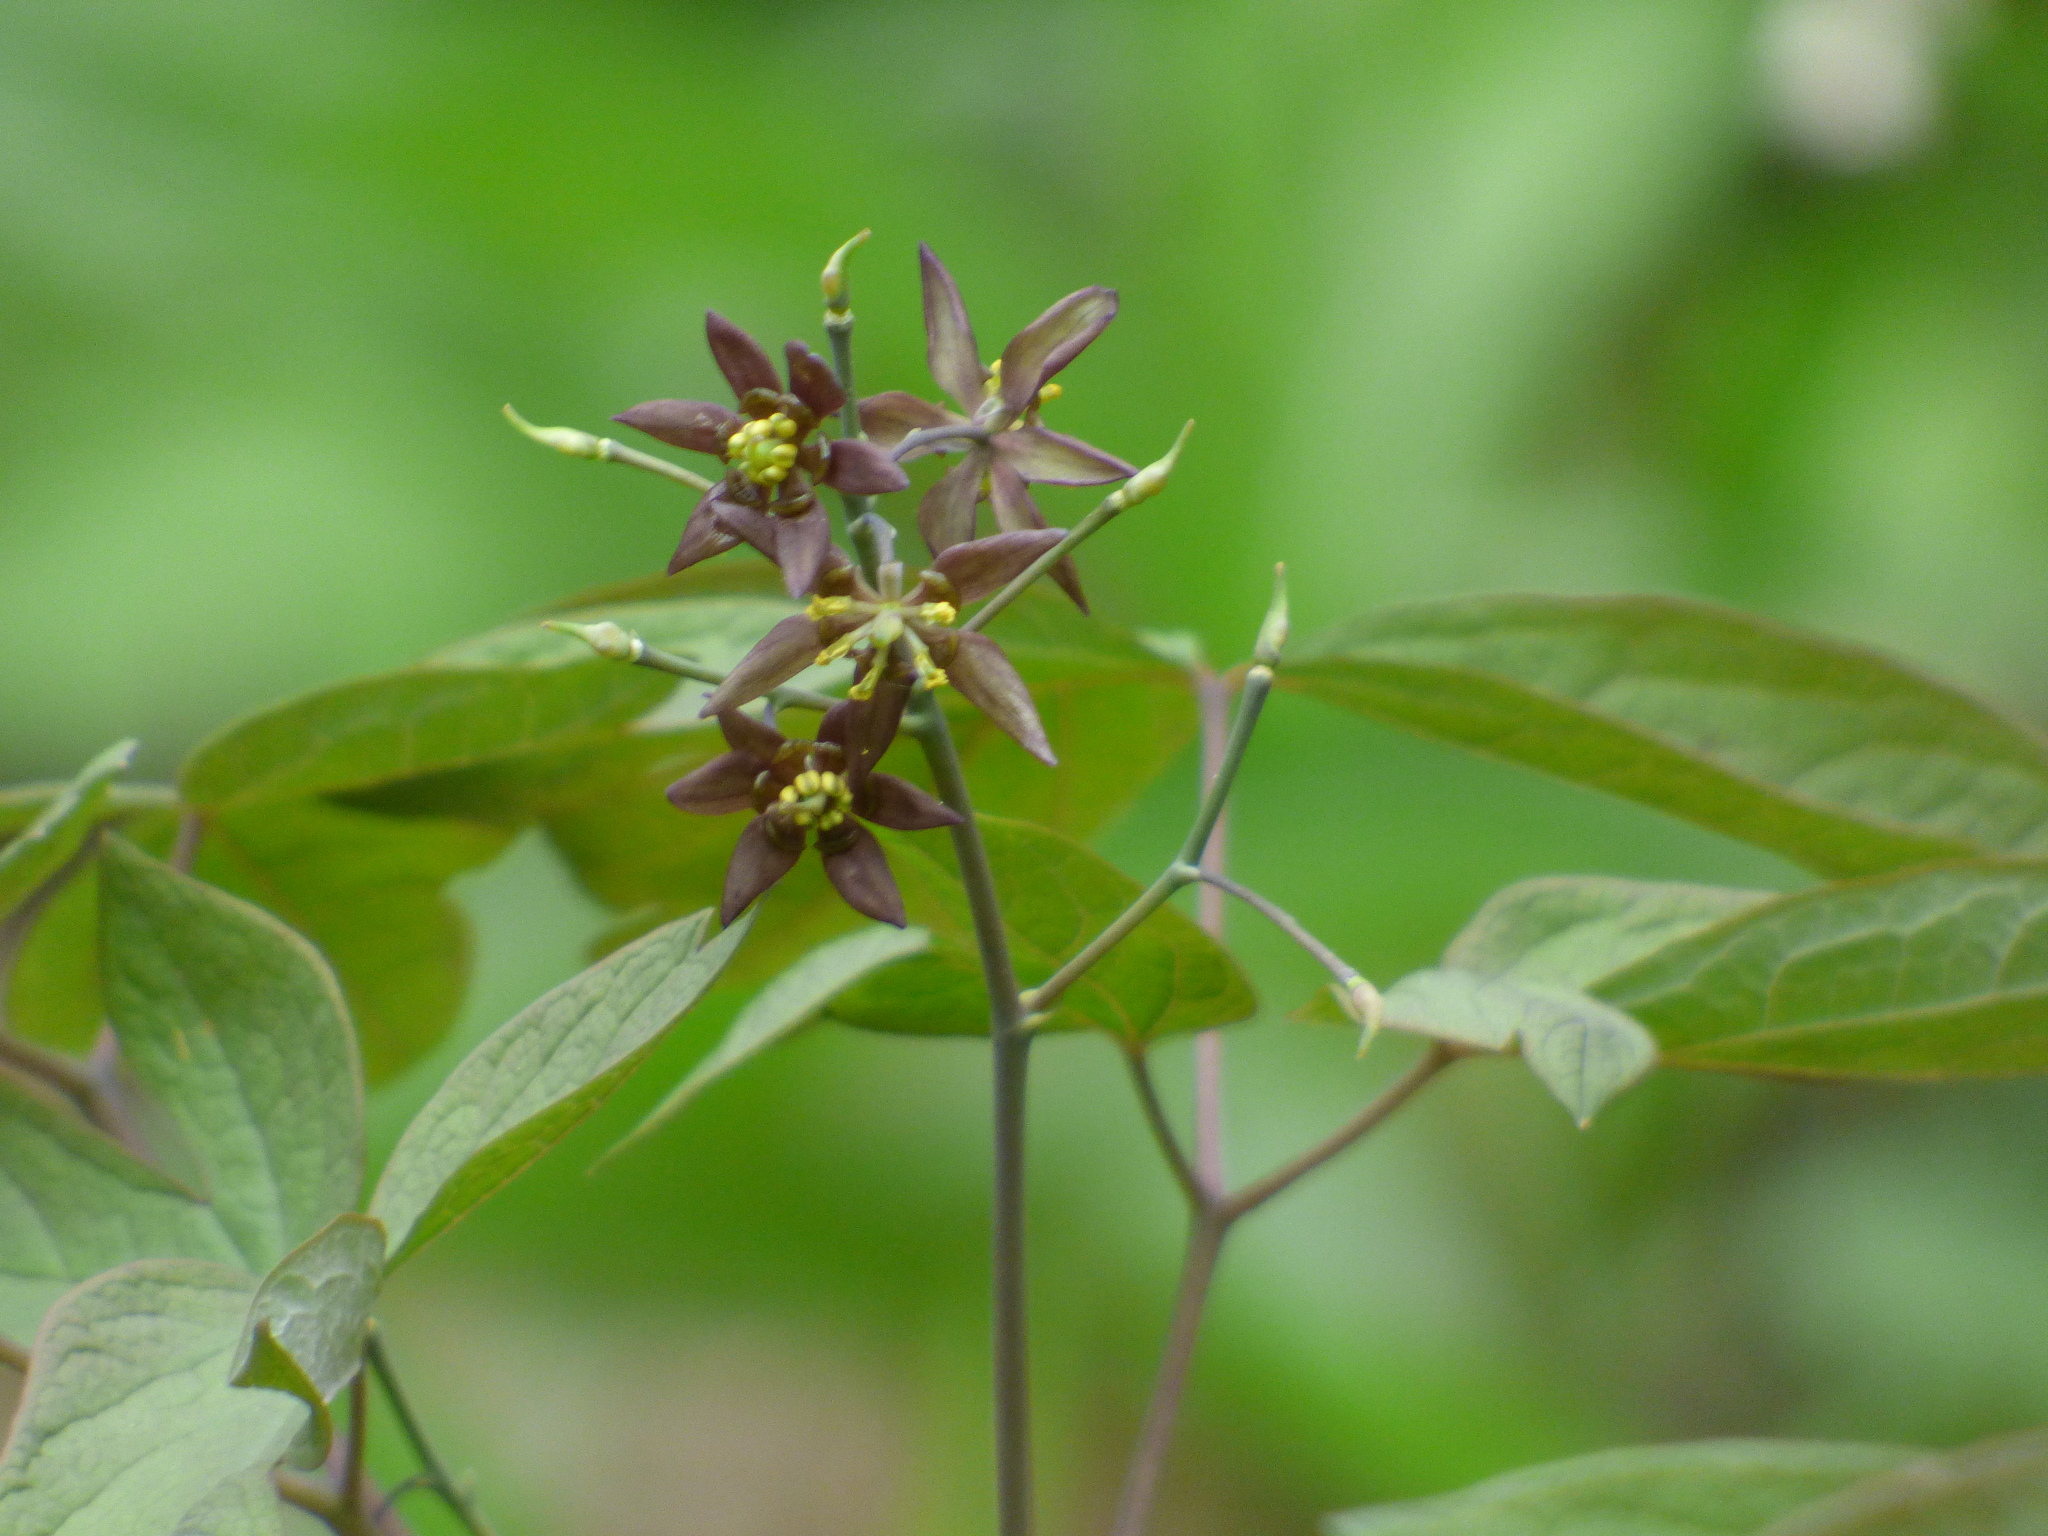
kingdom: Plantae
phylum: Tracheophyta
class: Magnoliopsida
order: Ranunculales
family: Berberidaceae
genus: Caulophyllum
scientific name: Caulophyllum giganteum
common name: Blue cohosh
